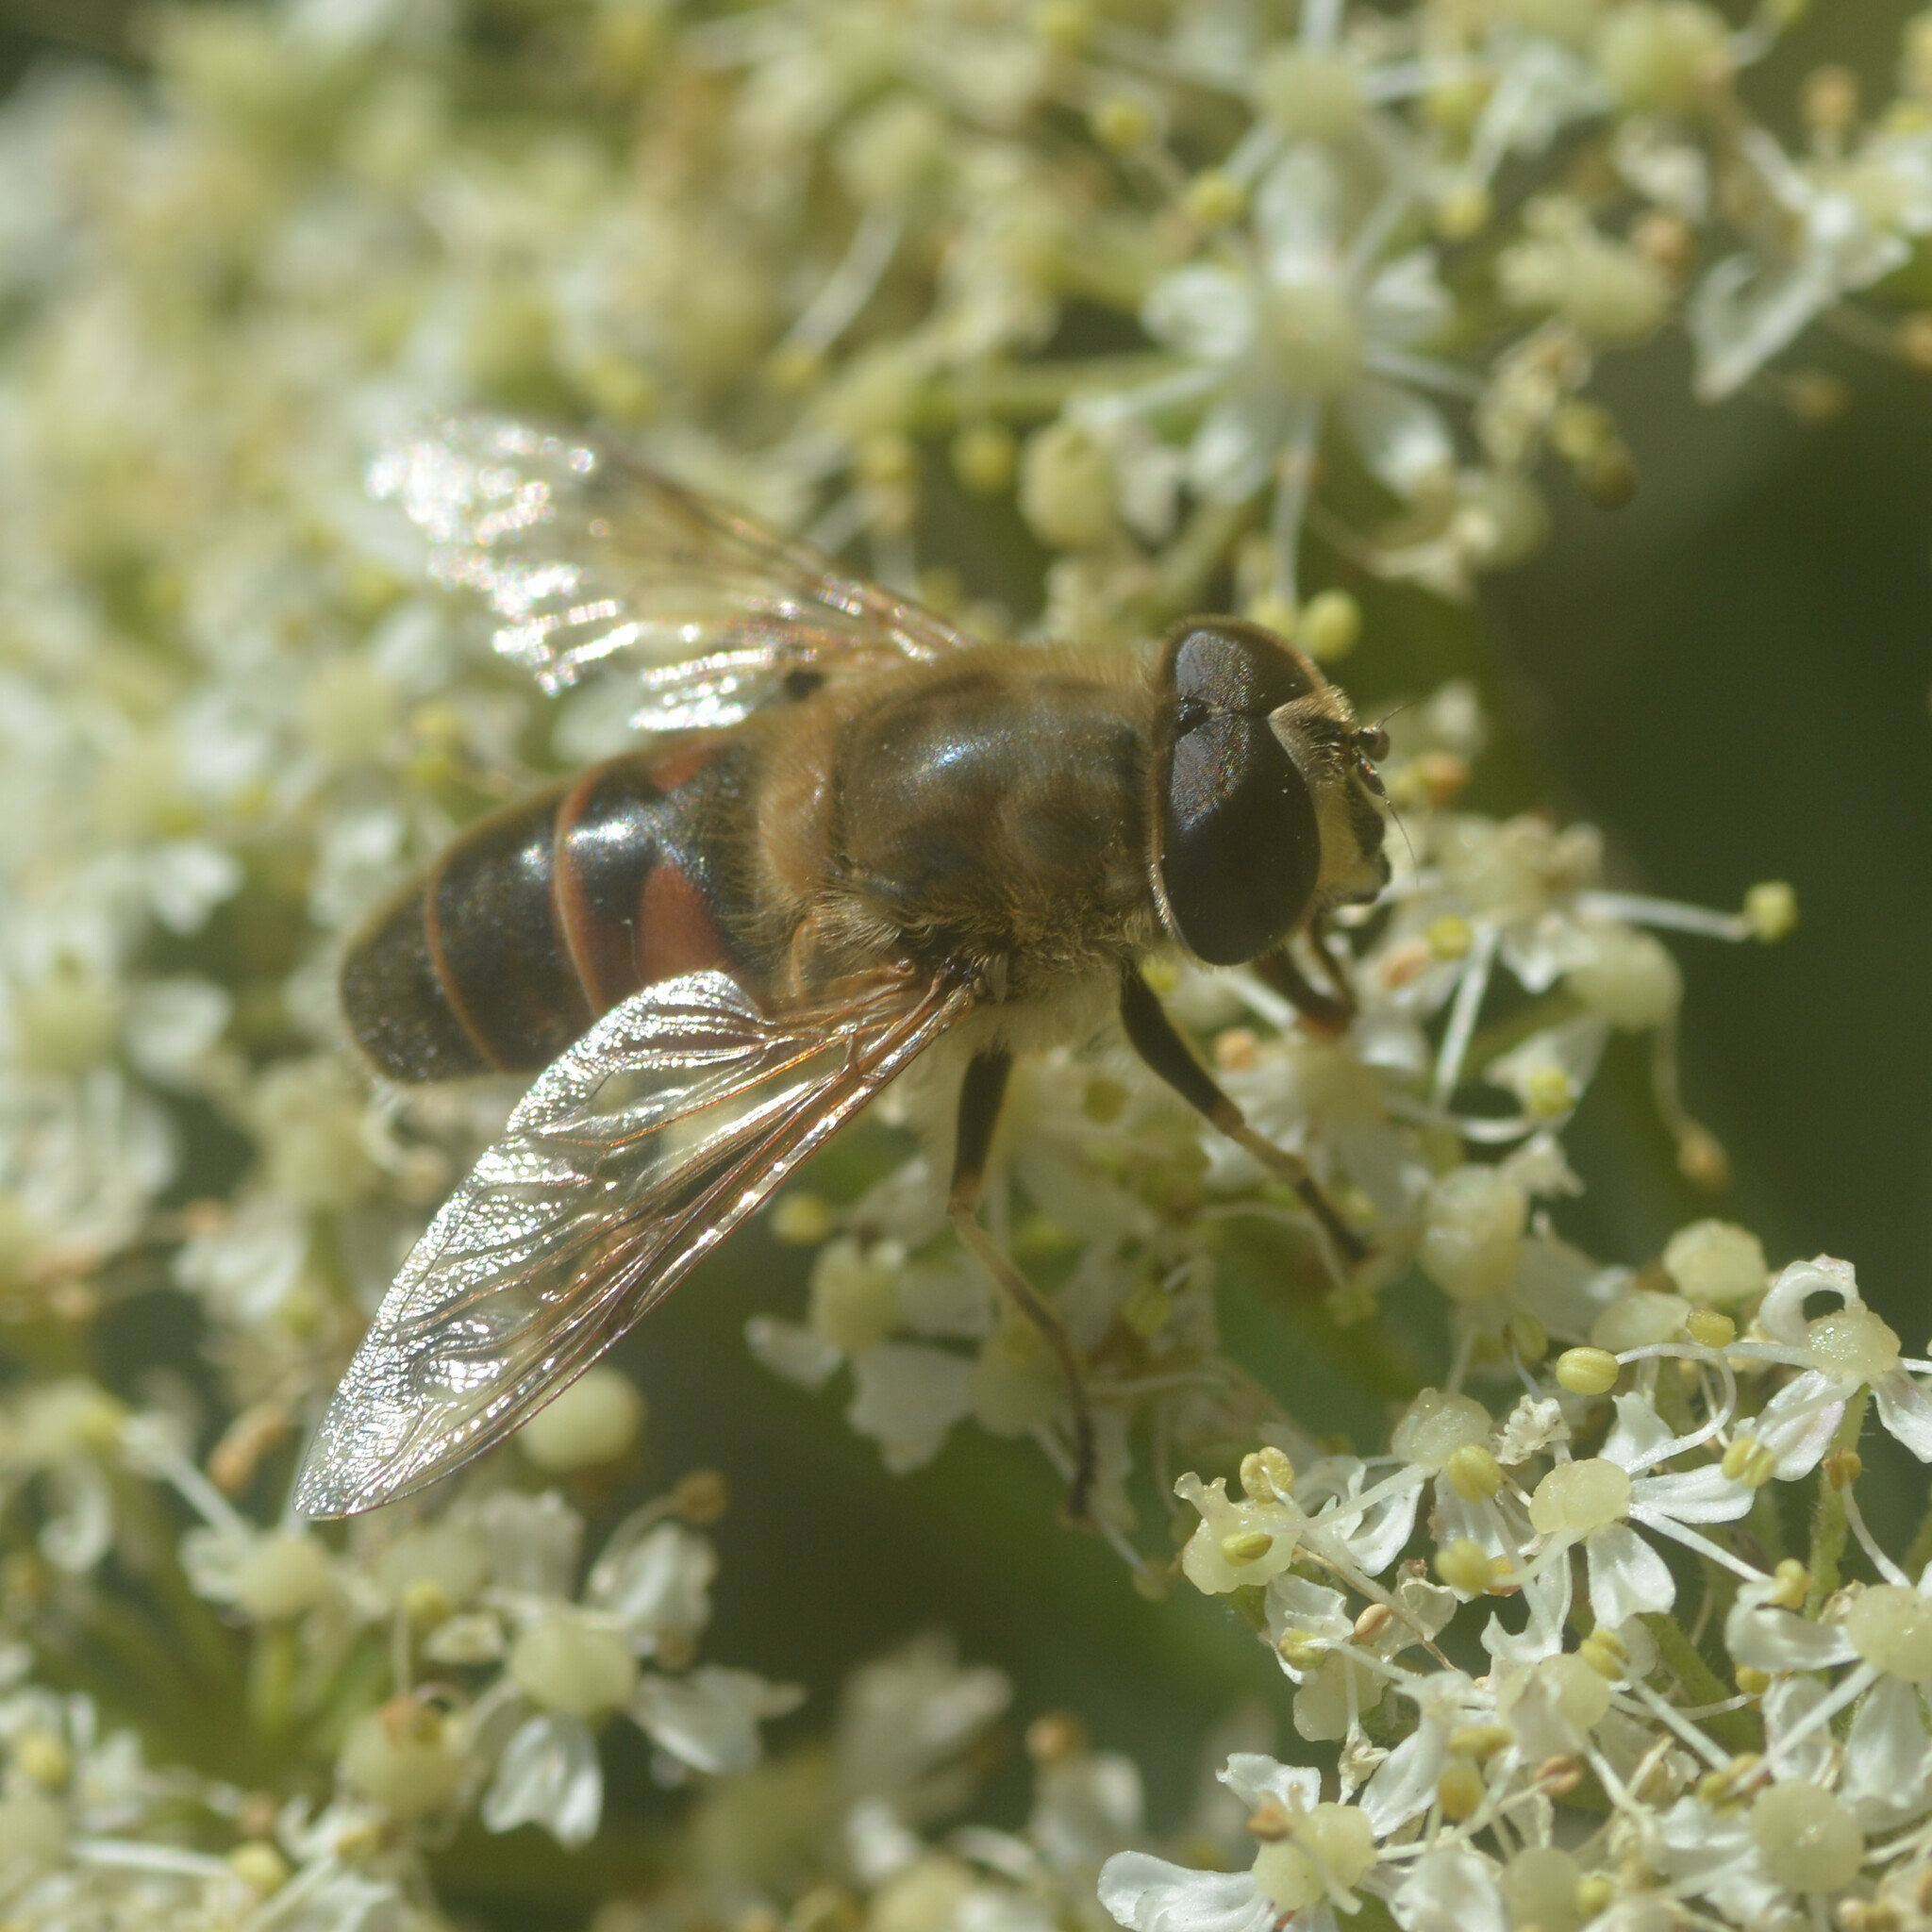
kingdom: Animalia
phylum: Arthropoda
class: Insecta
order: Diptera
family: Syrphidae
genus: Eristalis
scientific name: Eristalis tenax
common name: Drone fly
